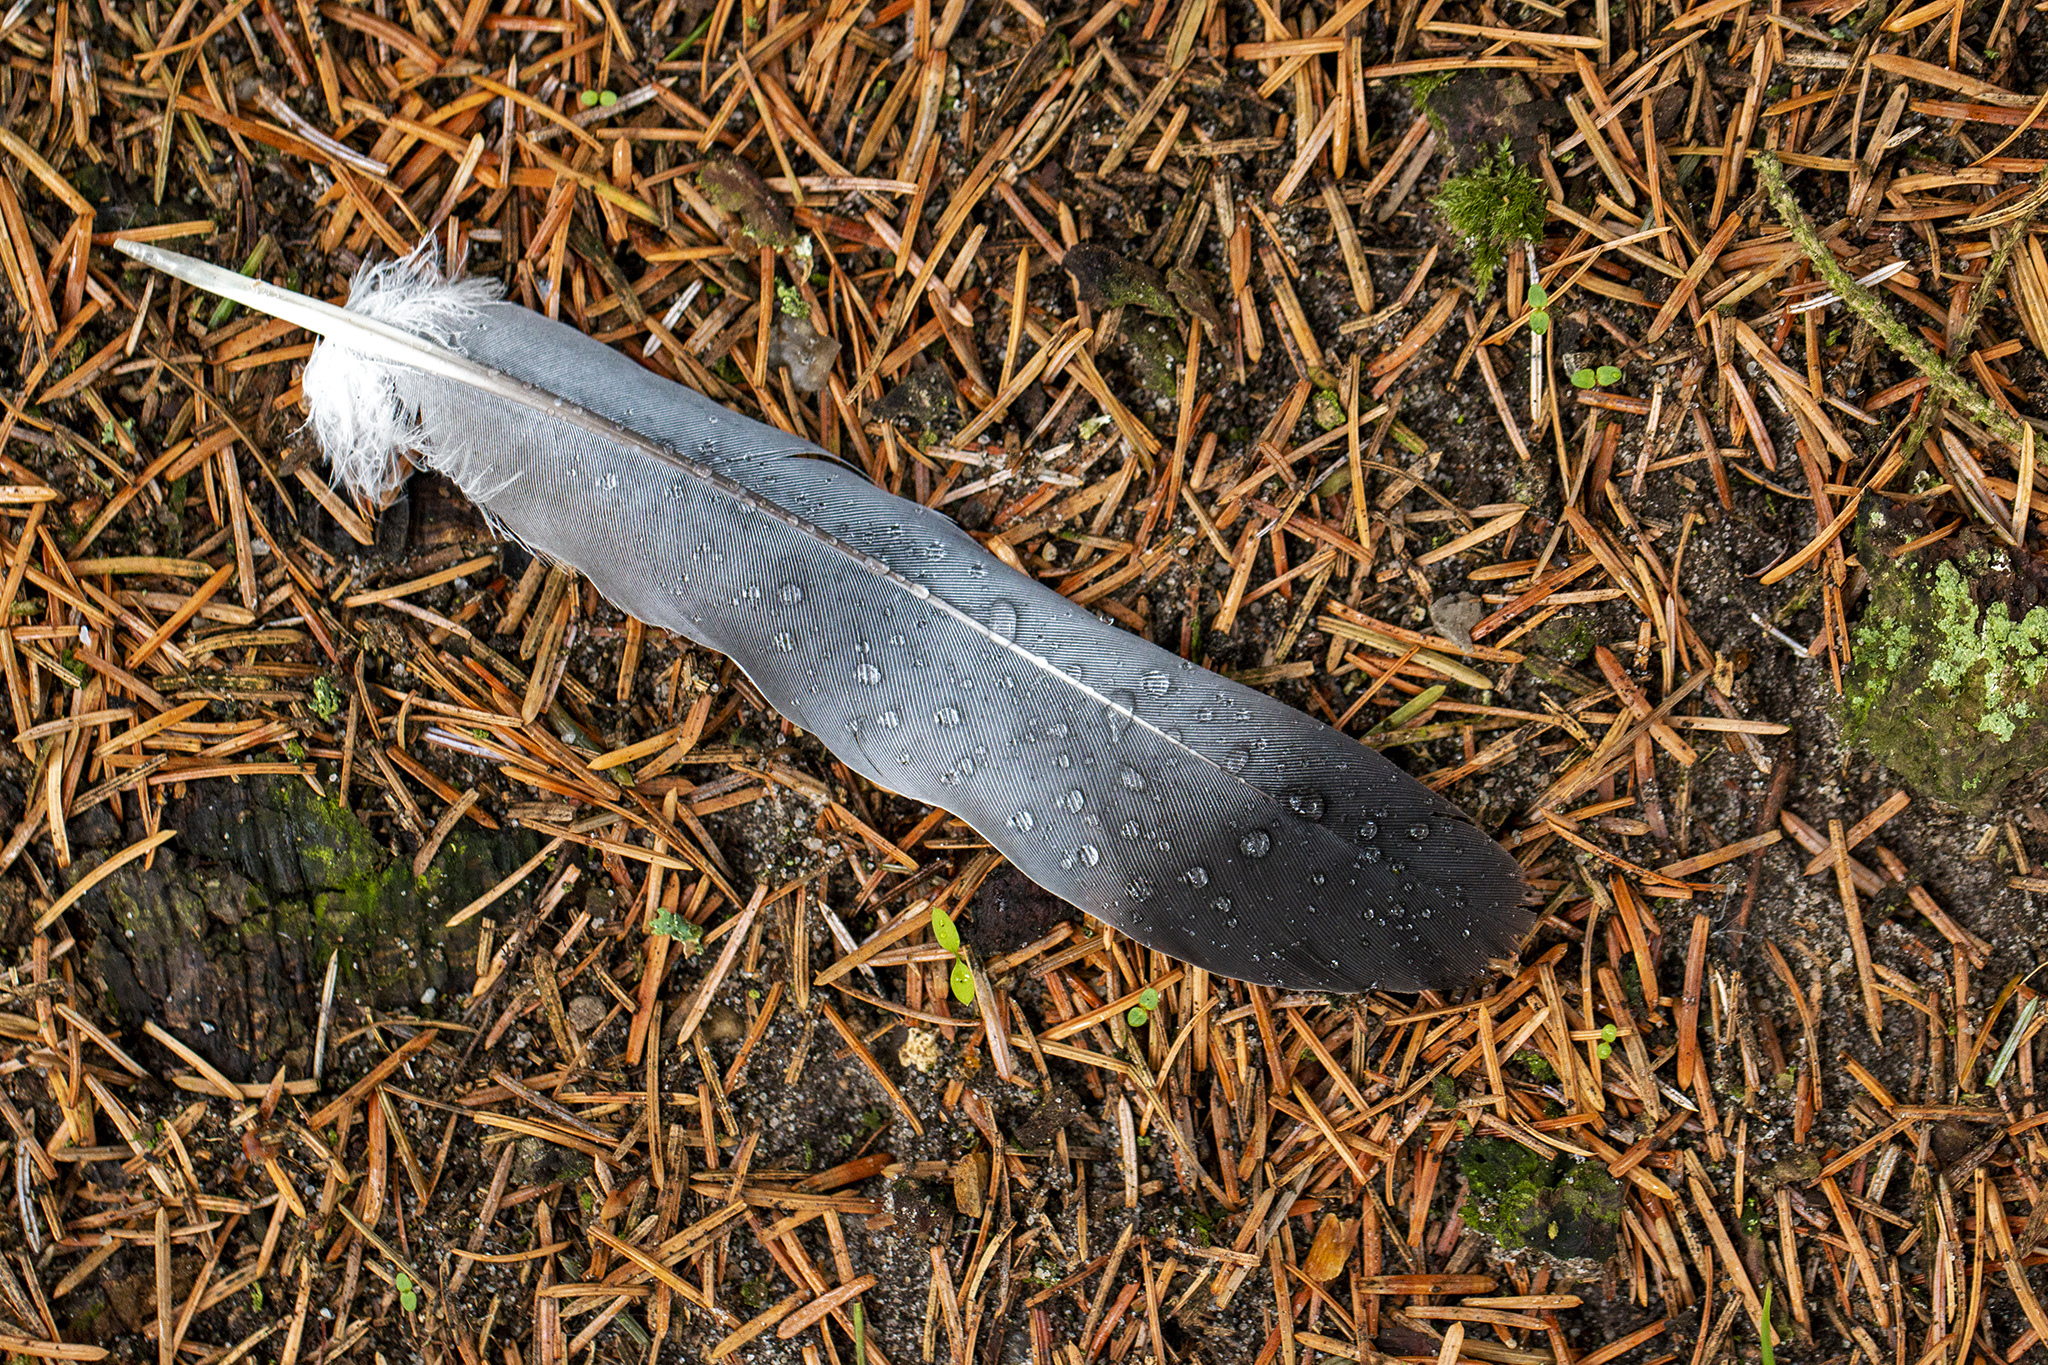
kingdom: Animalia
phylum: Chordata
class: Aves
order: Columbiformes
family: Columbidae
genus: Columba
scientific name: Columba palumbus
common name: Common wood pigeon
